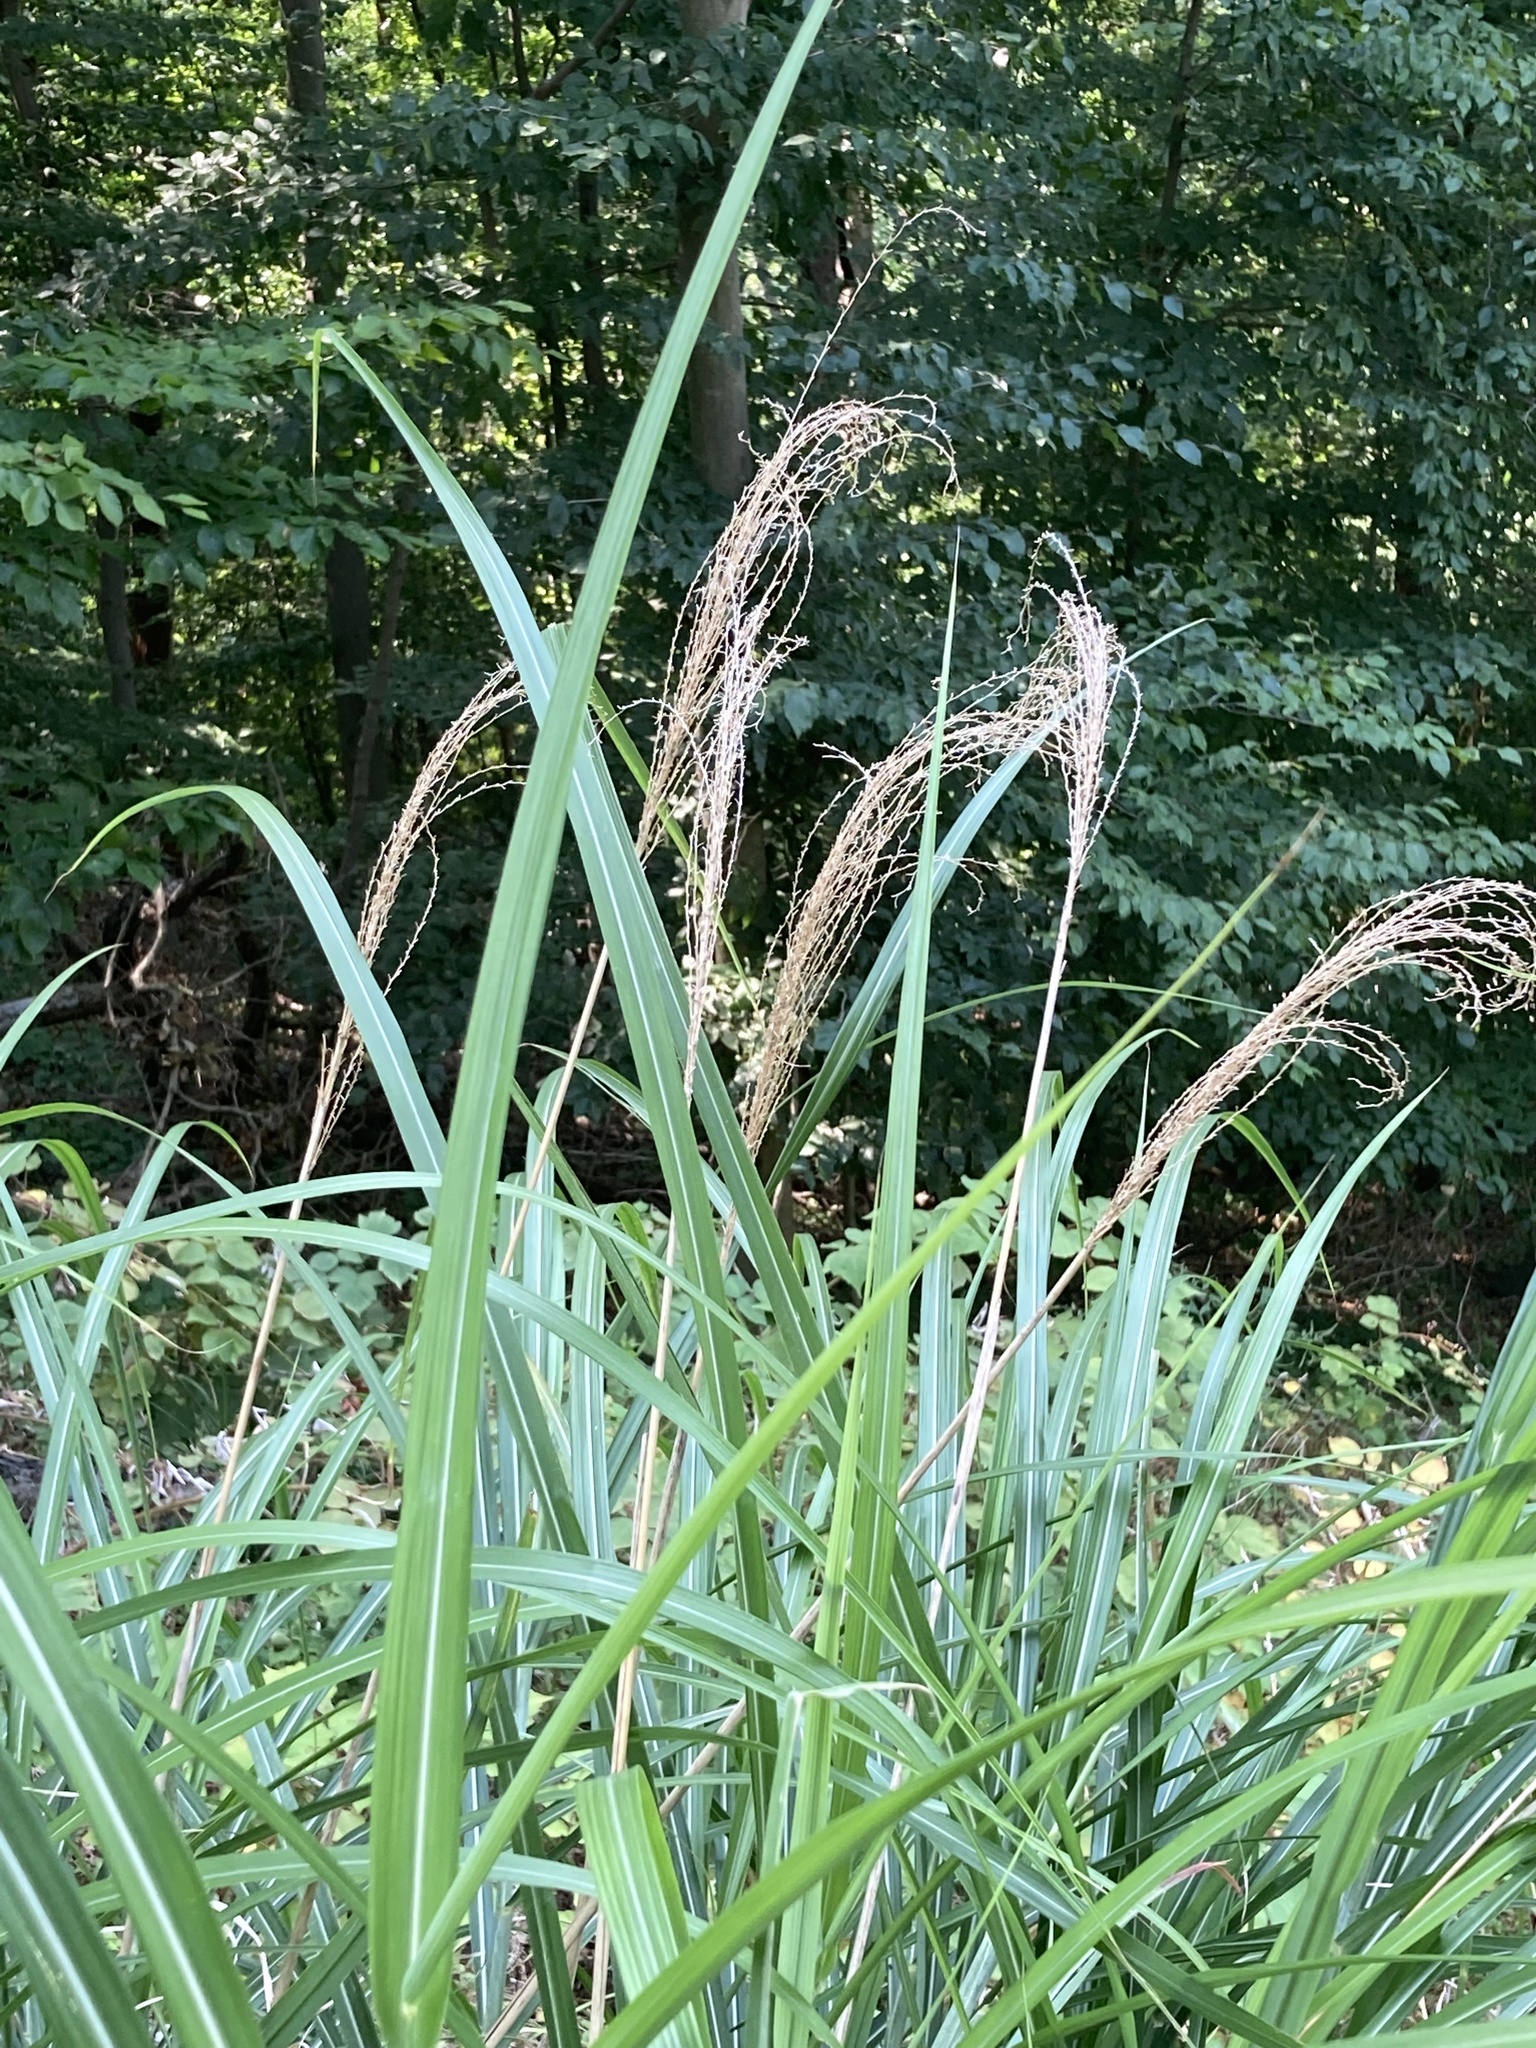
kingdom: Plantae
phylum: Tracheophyta
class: Liliopsida
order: Poales
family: Poaceae
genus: Miscanthus
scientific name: Miscanthus sinensis
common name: Chinese silvergrass
